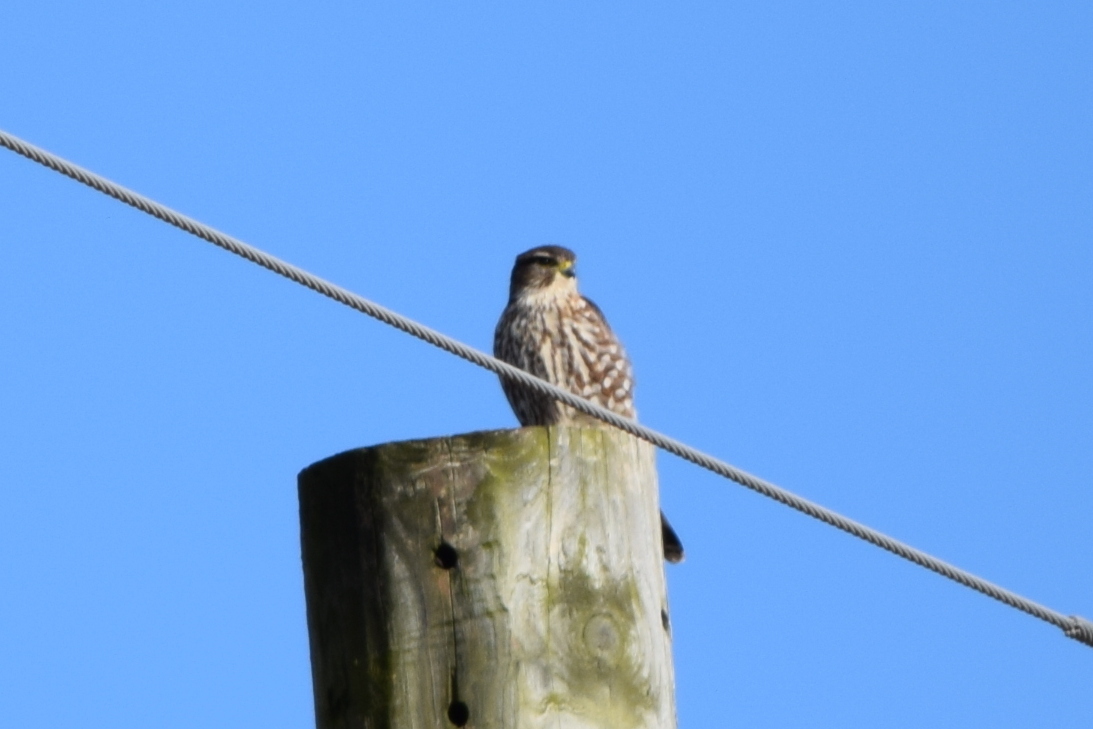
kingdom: Animalia
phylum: Chordata
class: Aves
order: Falconiformes
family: Falconidae
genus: Falco
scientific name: Falco columbarius
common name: Merlin
